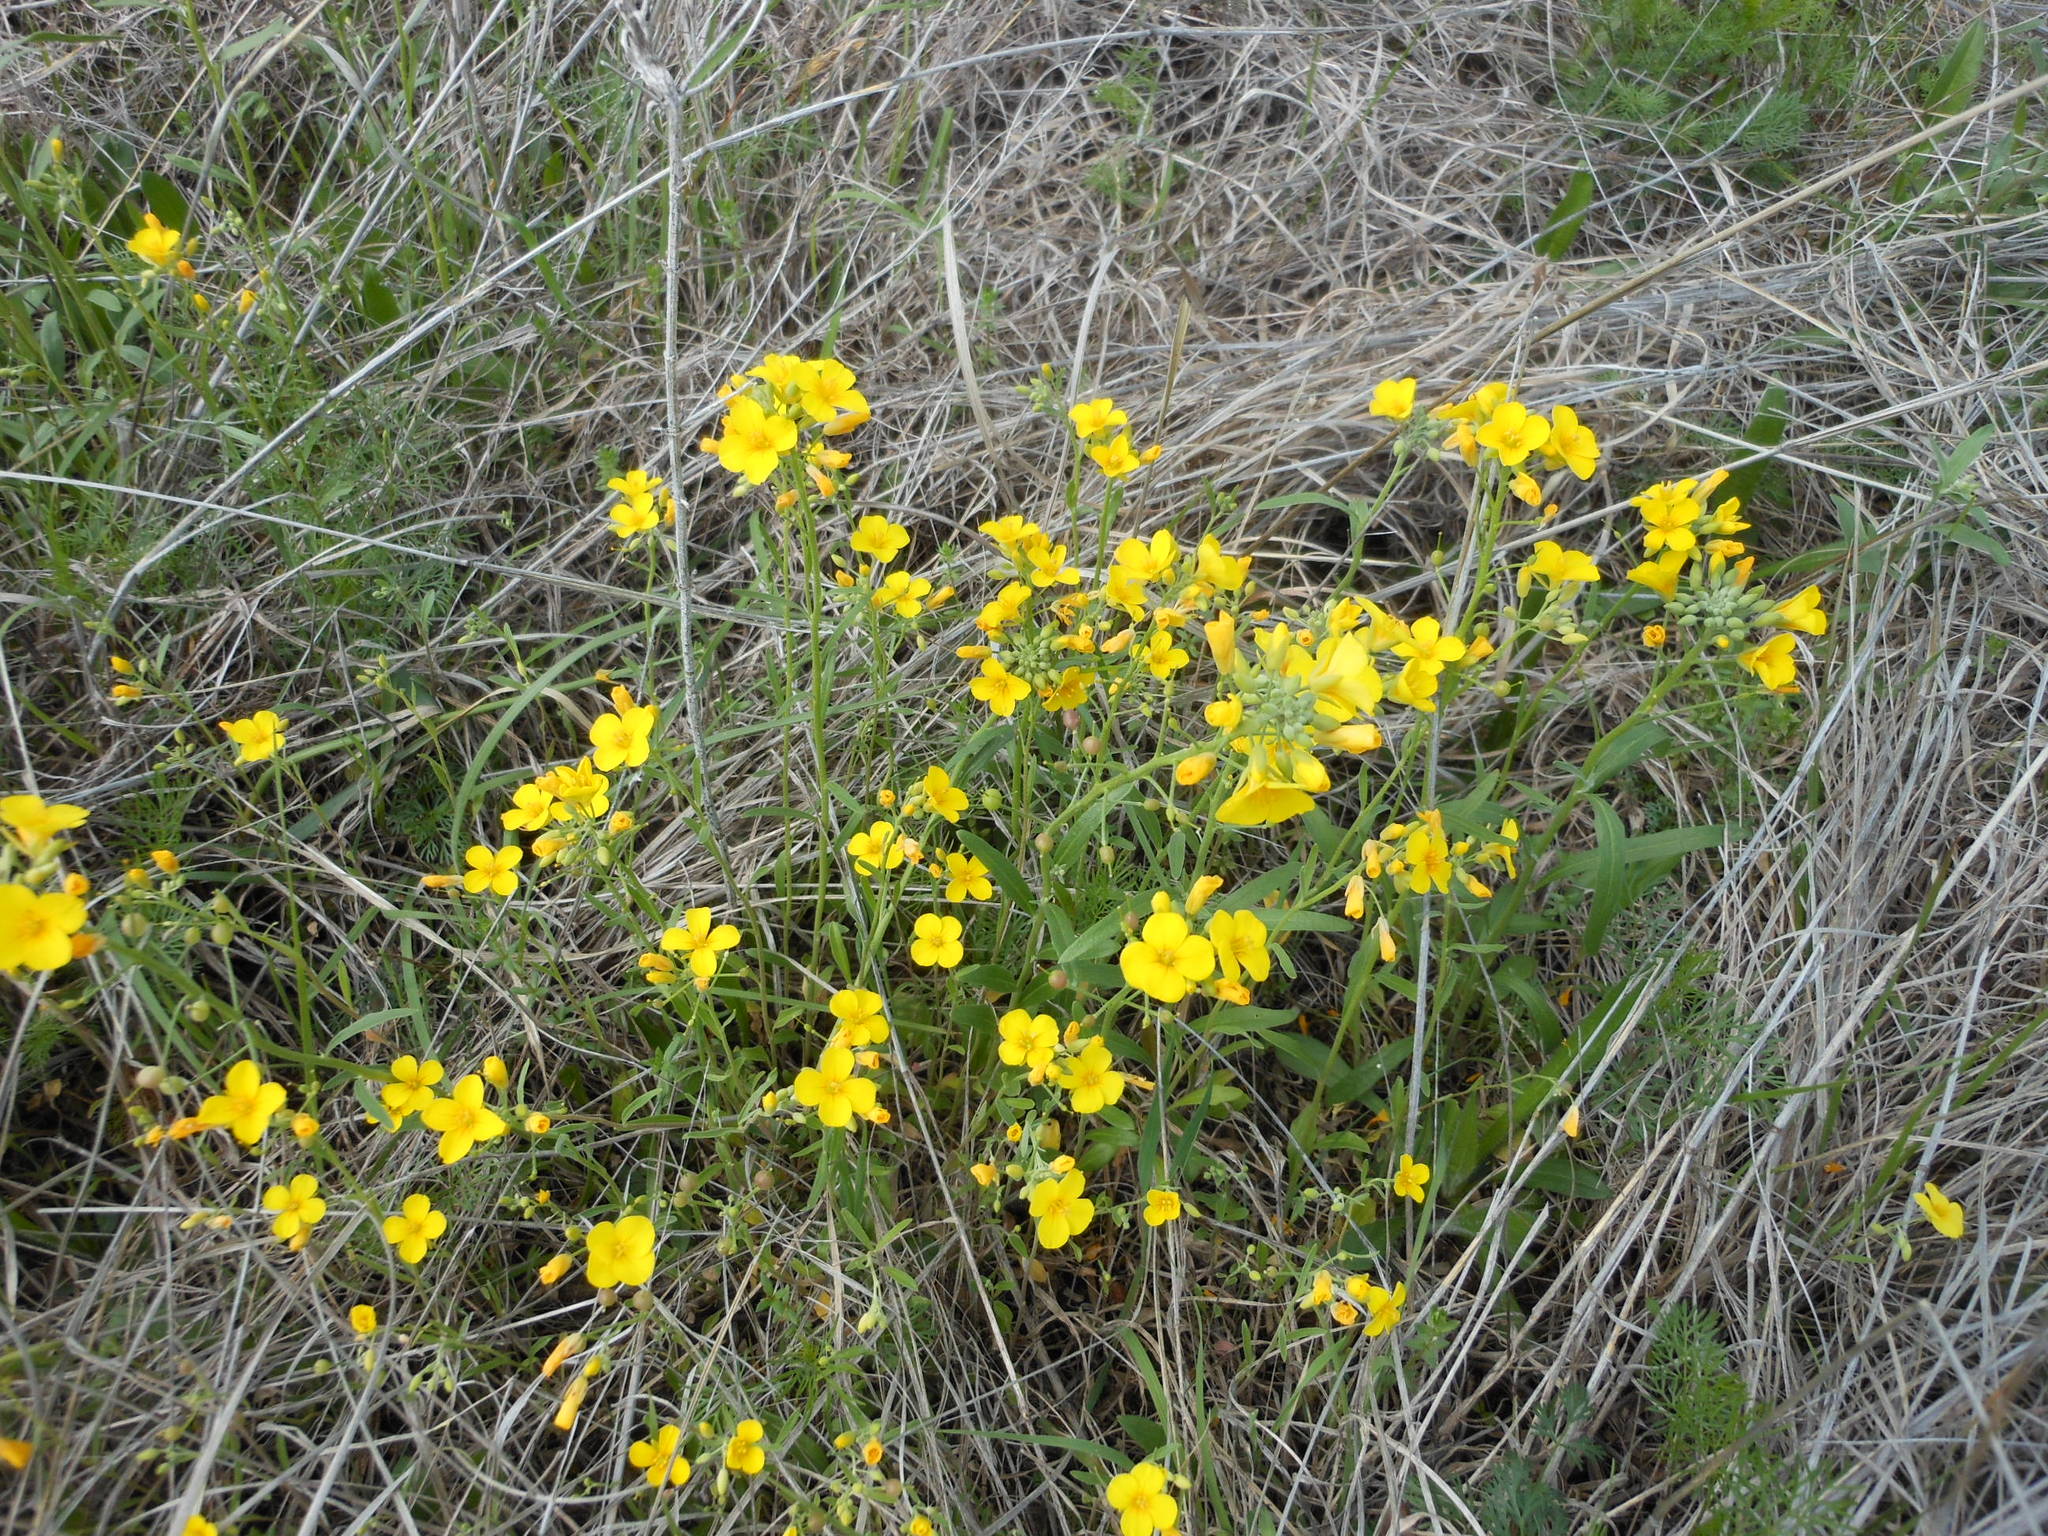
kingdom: Plantae
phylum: Tracheophyta
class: Magnoliopsida
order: Brassicales
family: Brassicaceae
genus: Physaria
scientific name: Physaria gracilis
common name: Spreading bladderpod
